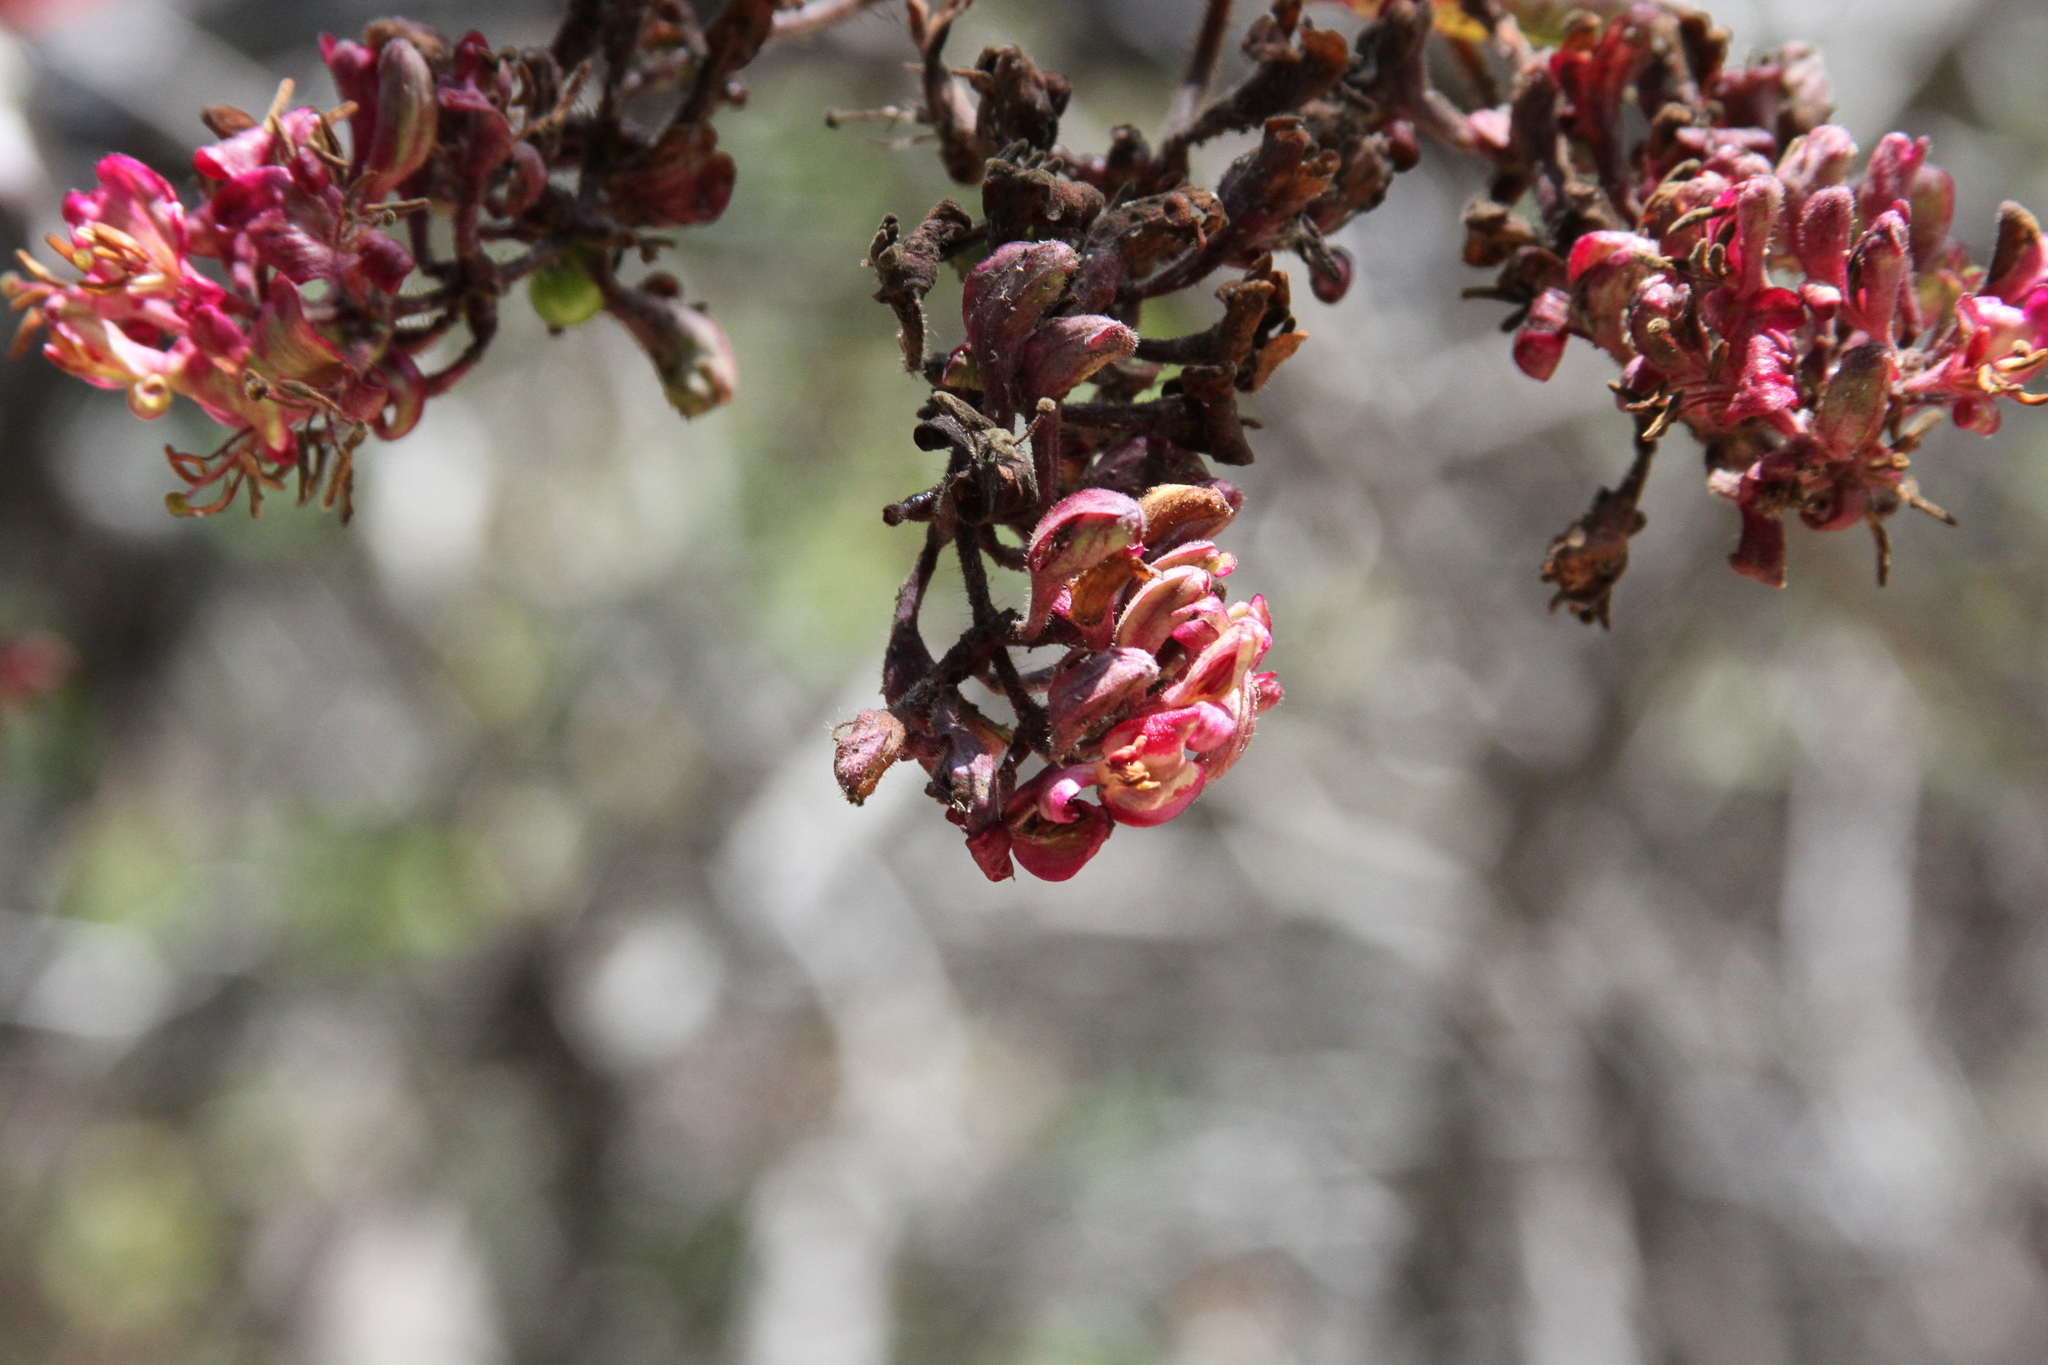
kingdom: Plantae
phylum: Tracheophyta
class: Magnoliopsida
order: Dipsacales
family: Caprifoliaceae
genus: Lonicera
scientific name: Lonicera hispidula
